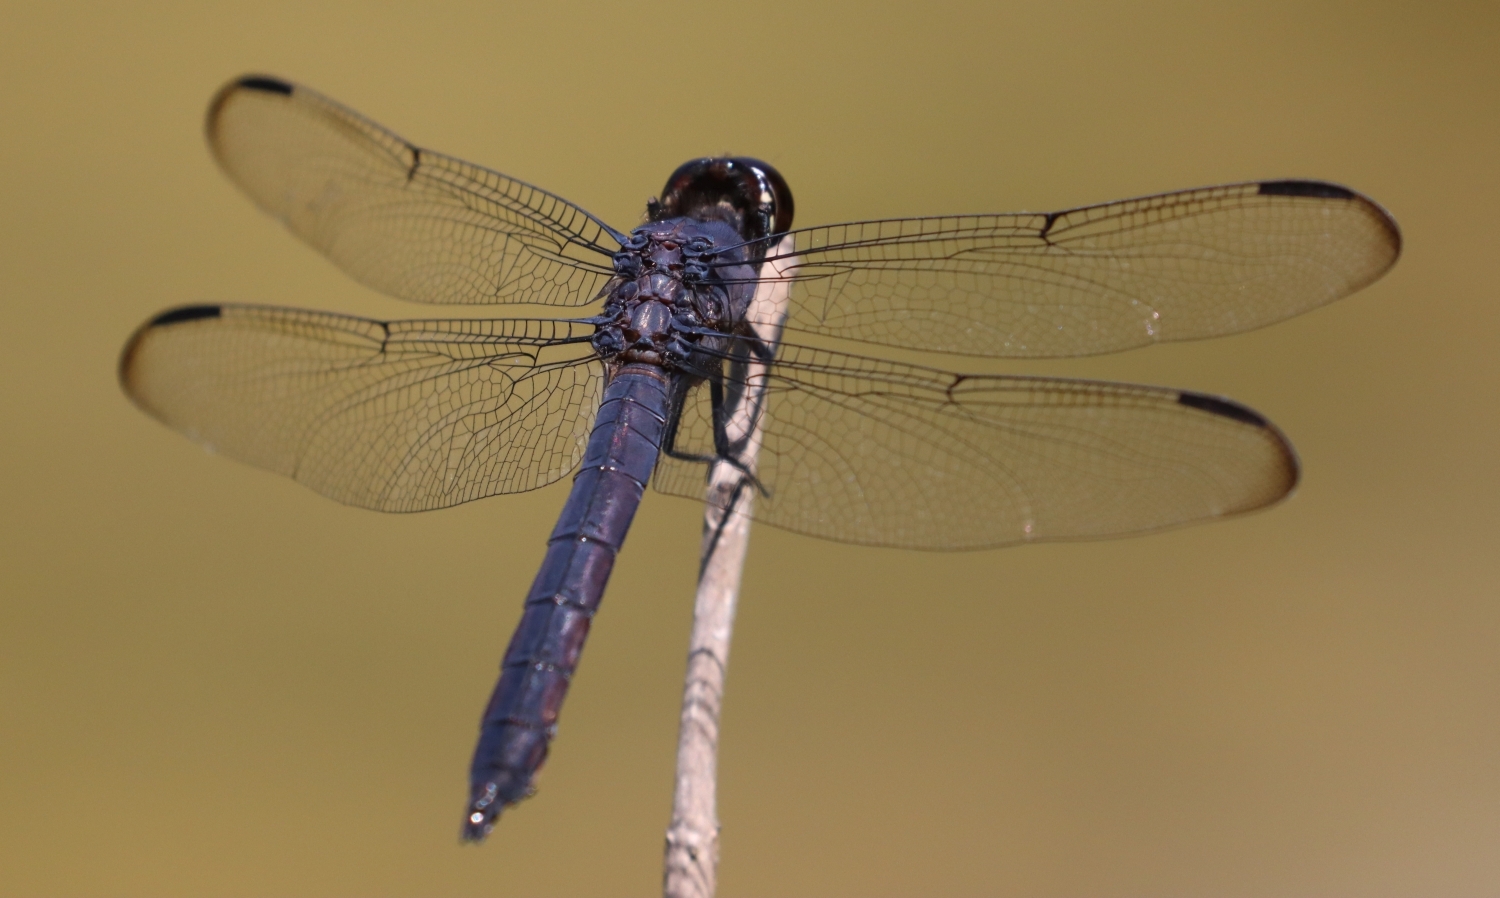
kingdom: Animalia
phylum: Arthropoda
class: Insecta
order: Odonata
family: Libellulidae
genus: Libellula
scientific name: Libellula incesta
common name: Slaty skimmer
